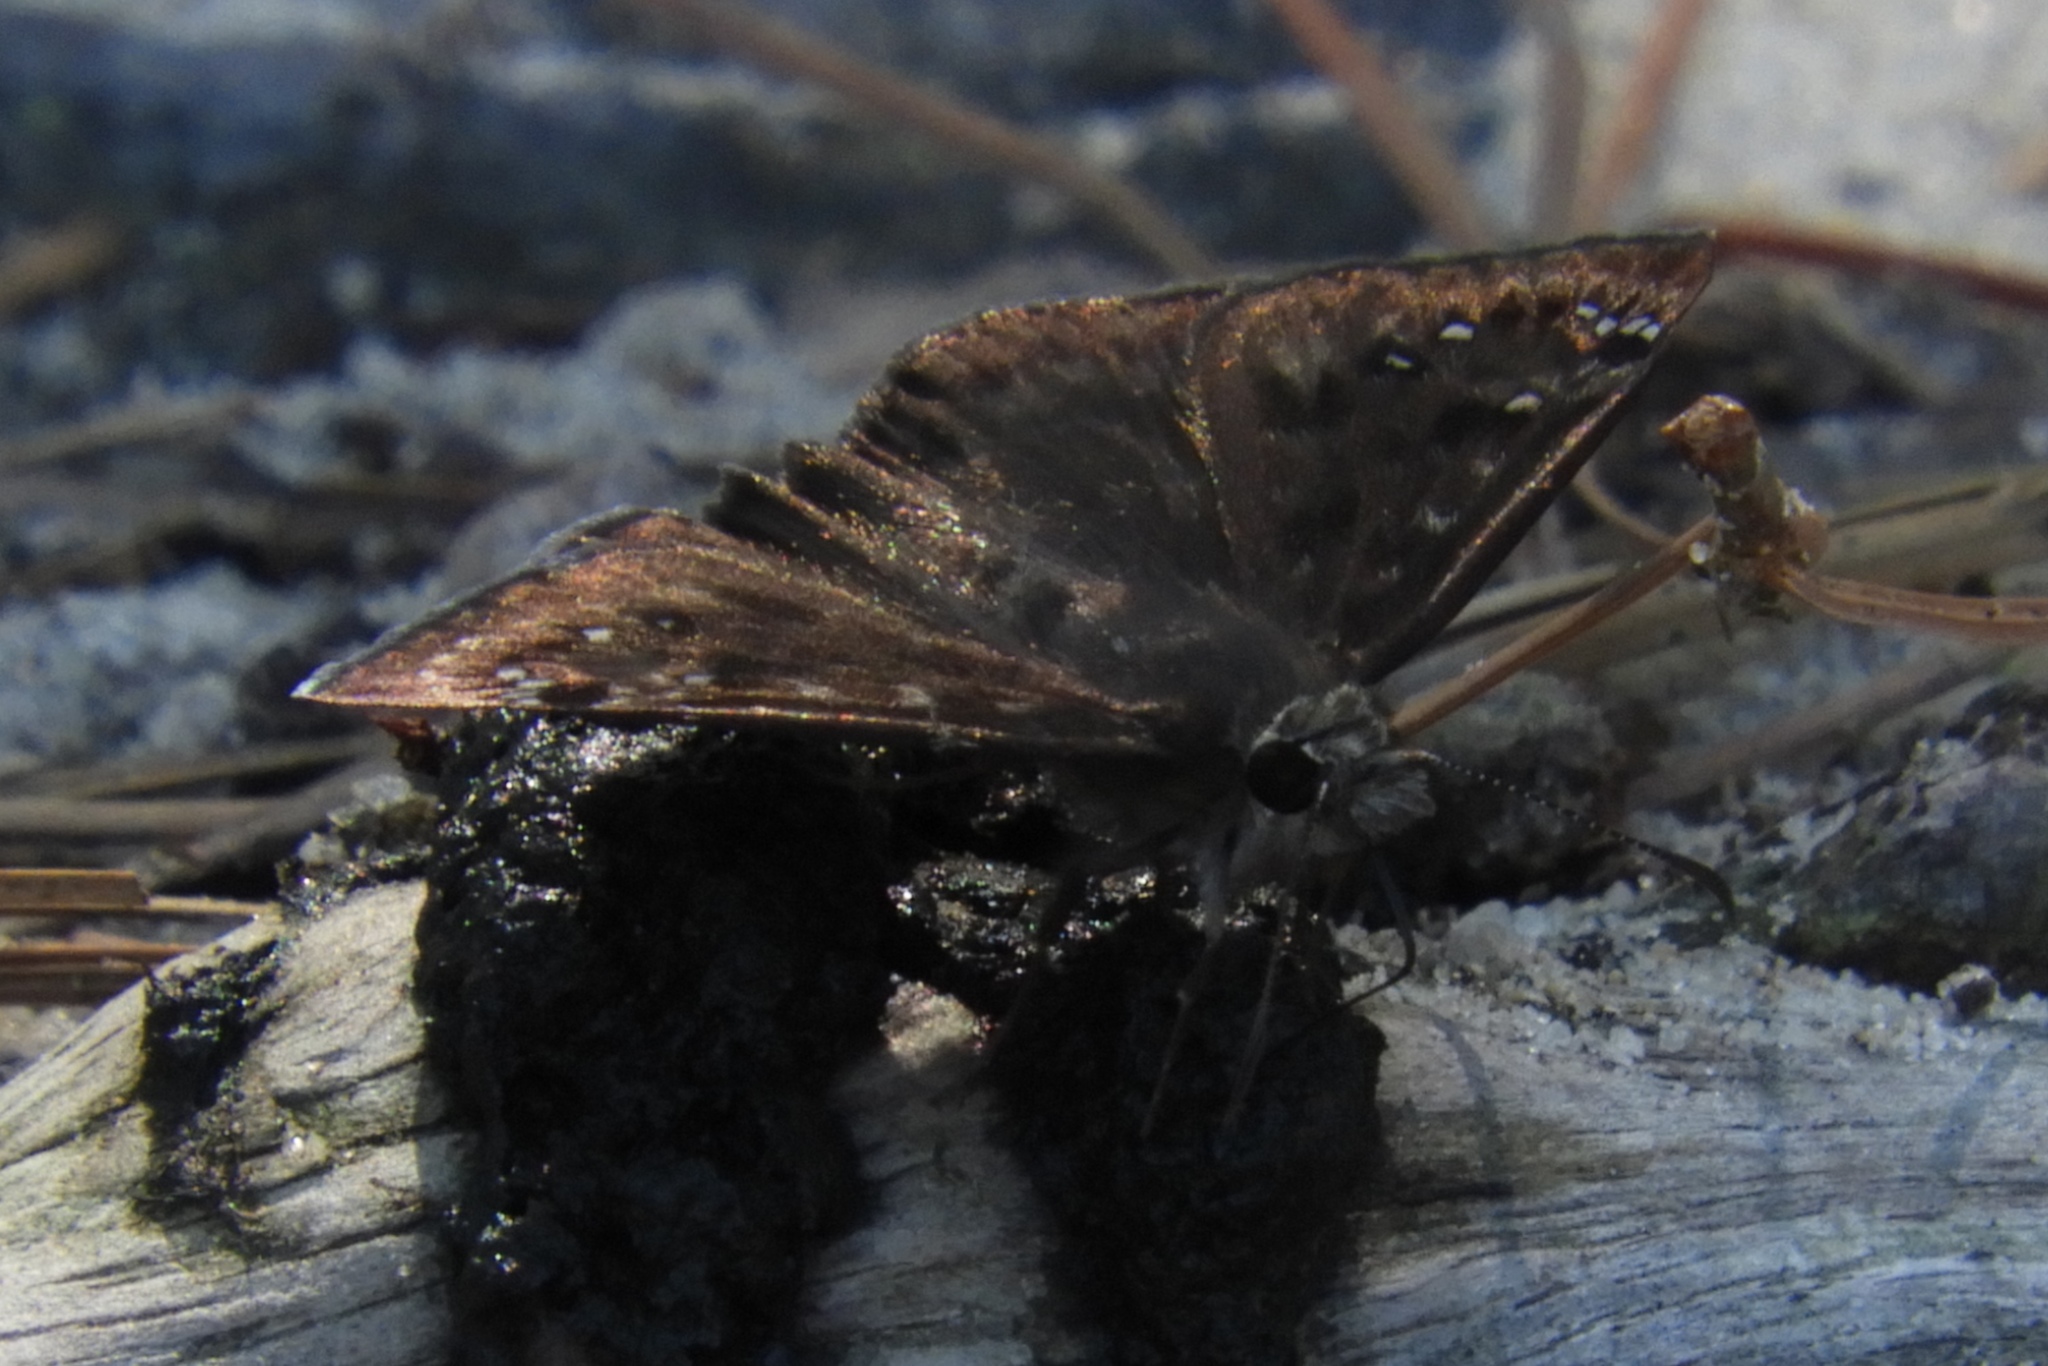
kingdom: Animalia
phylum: Arthropoda
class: Insecta
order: Lepidoptera
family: Hesperiidae
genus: Erynnis
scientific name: Erynnis horatius
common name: Horace's duskywing
